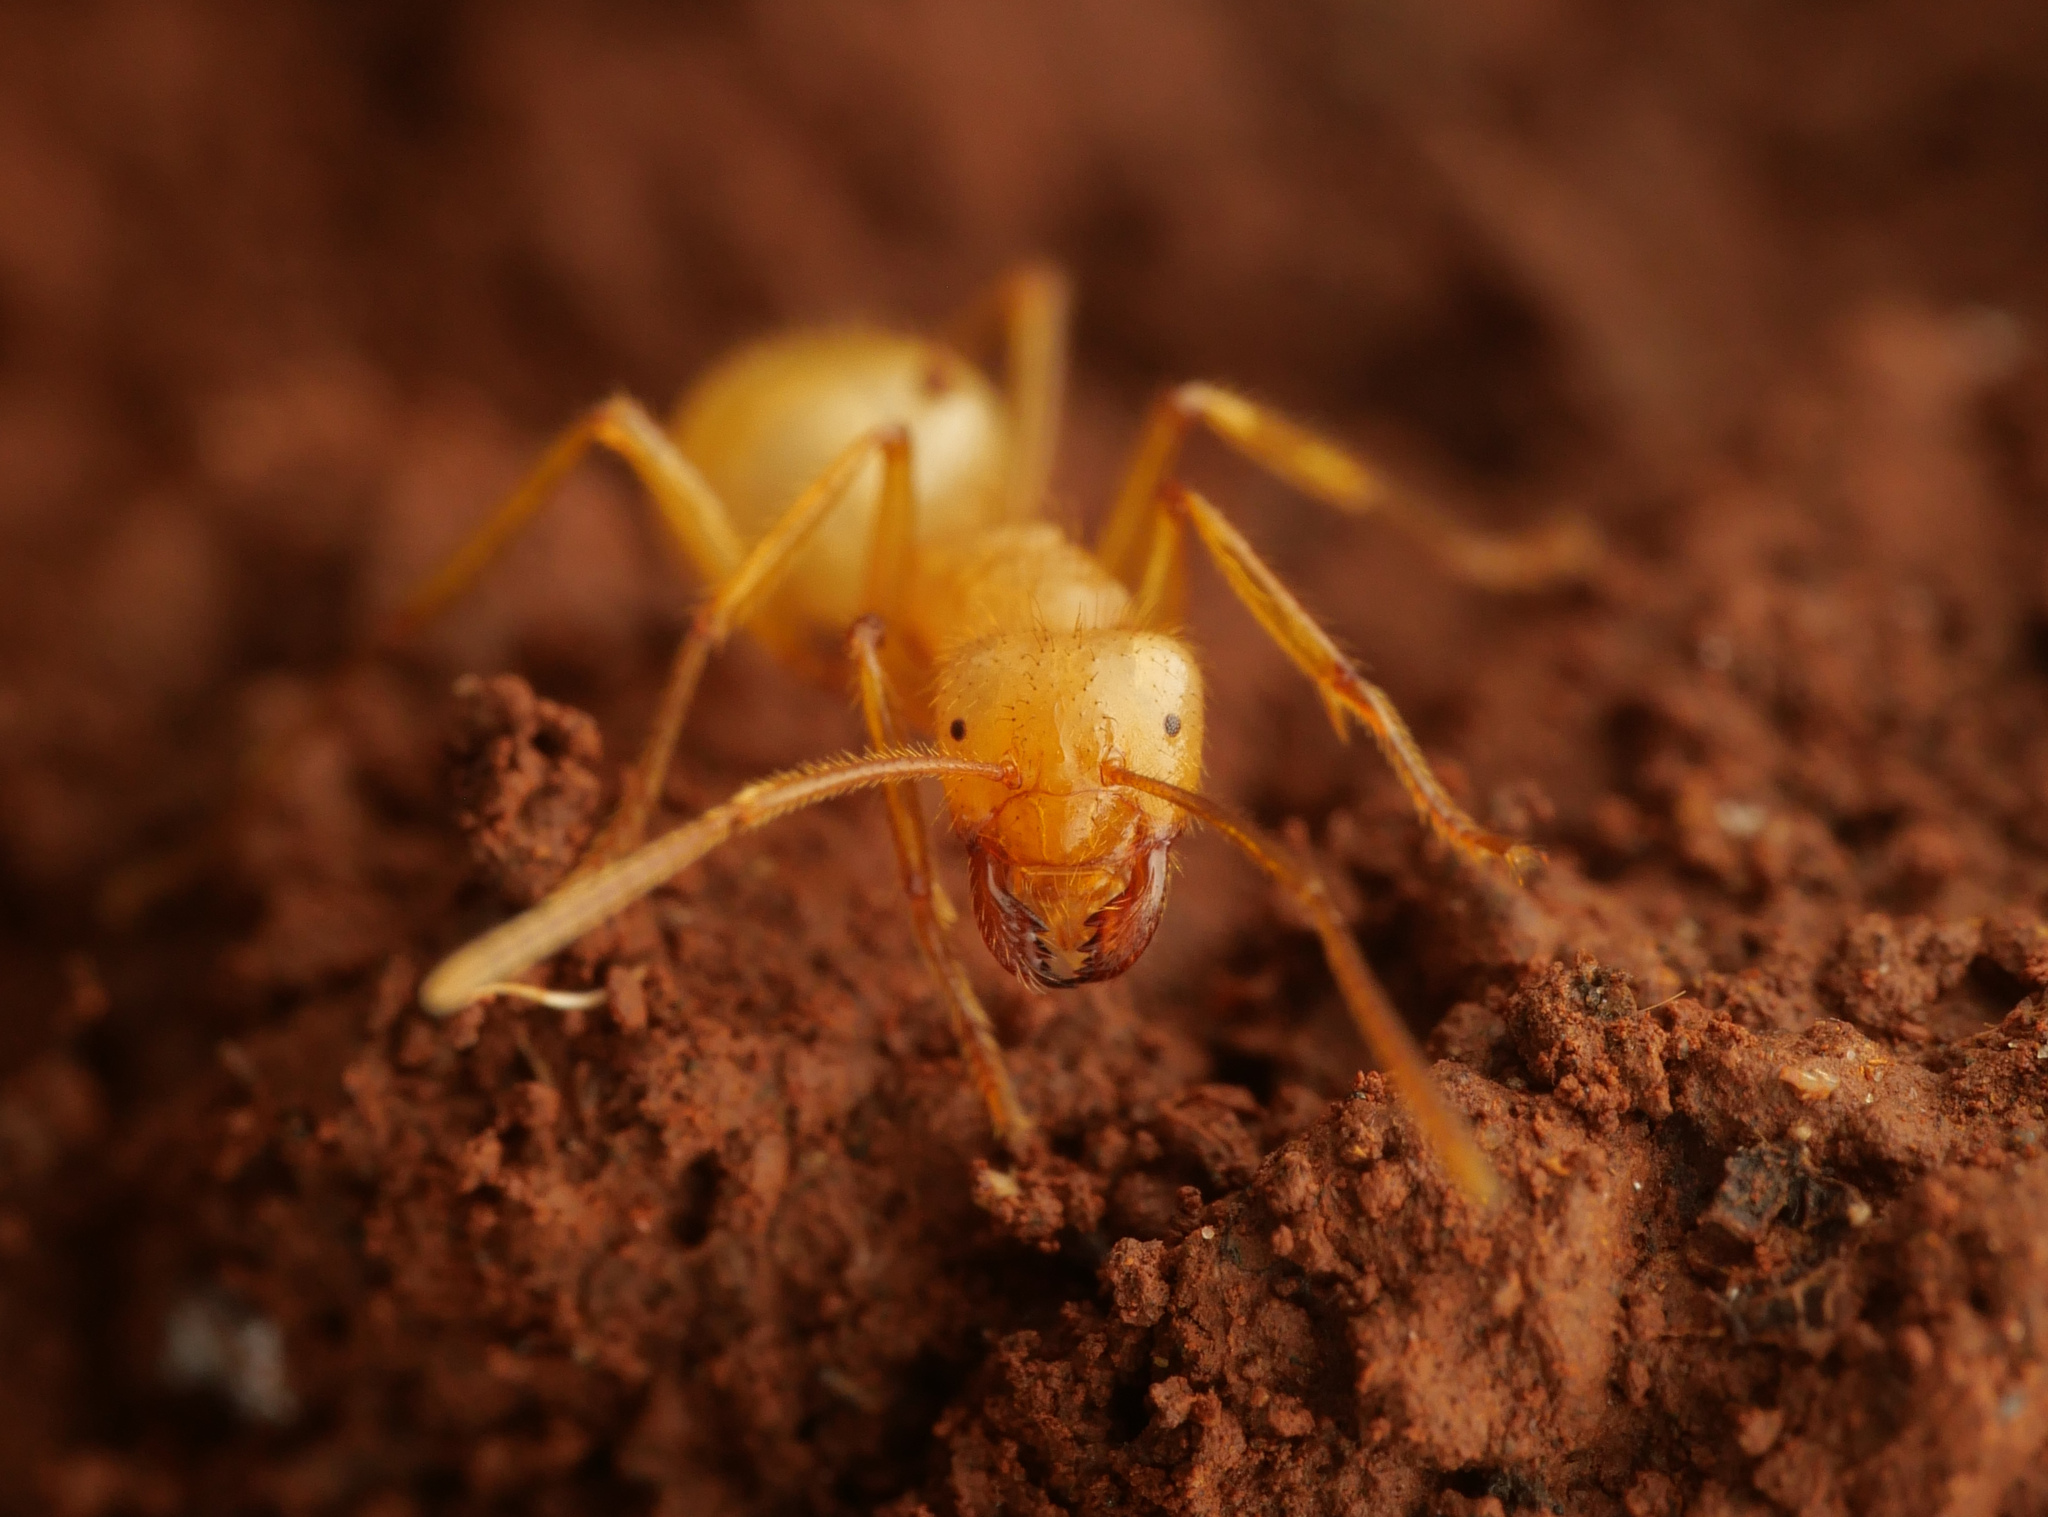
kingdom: Animalia
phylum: Arthropoda
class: Insecta
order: Hymenoptera
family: Formicidae
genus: Pseudolasius
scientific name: Pseudolasius karawajewi
